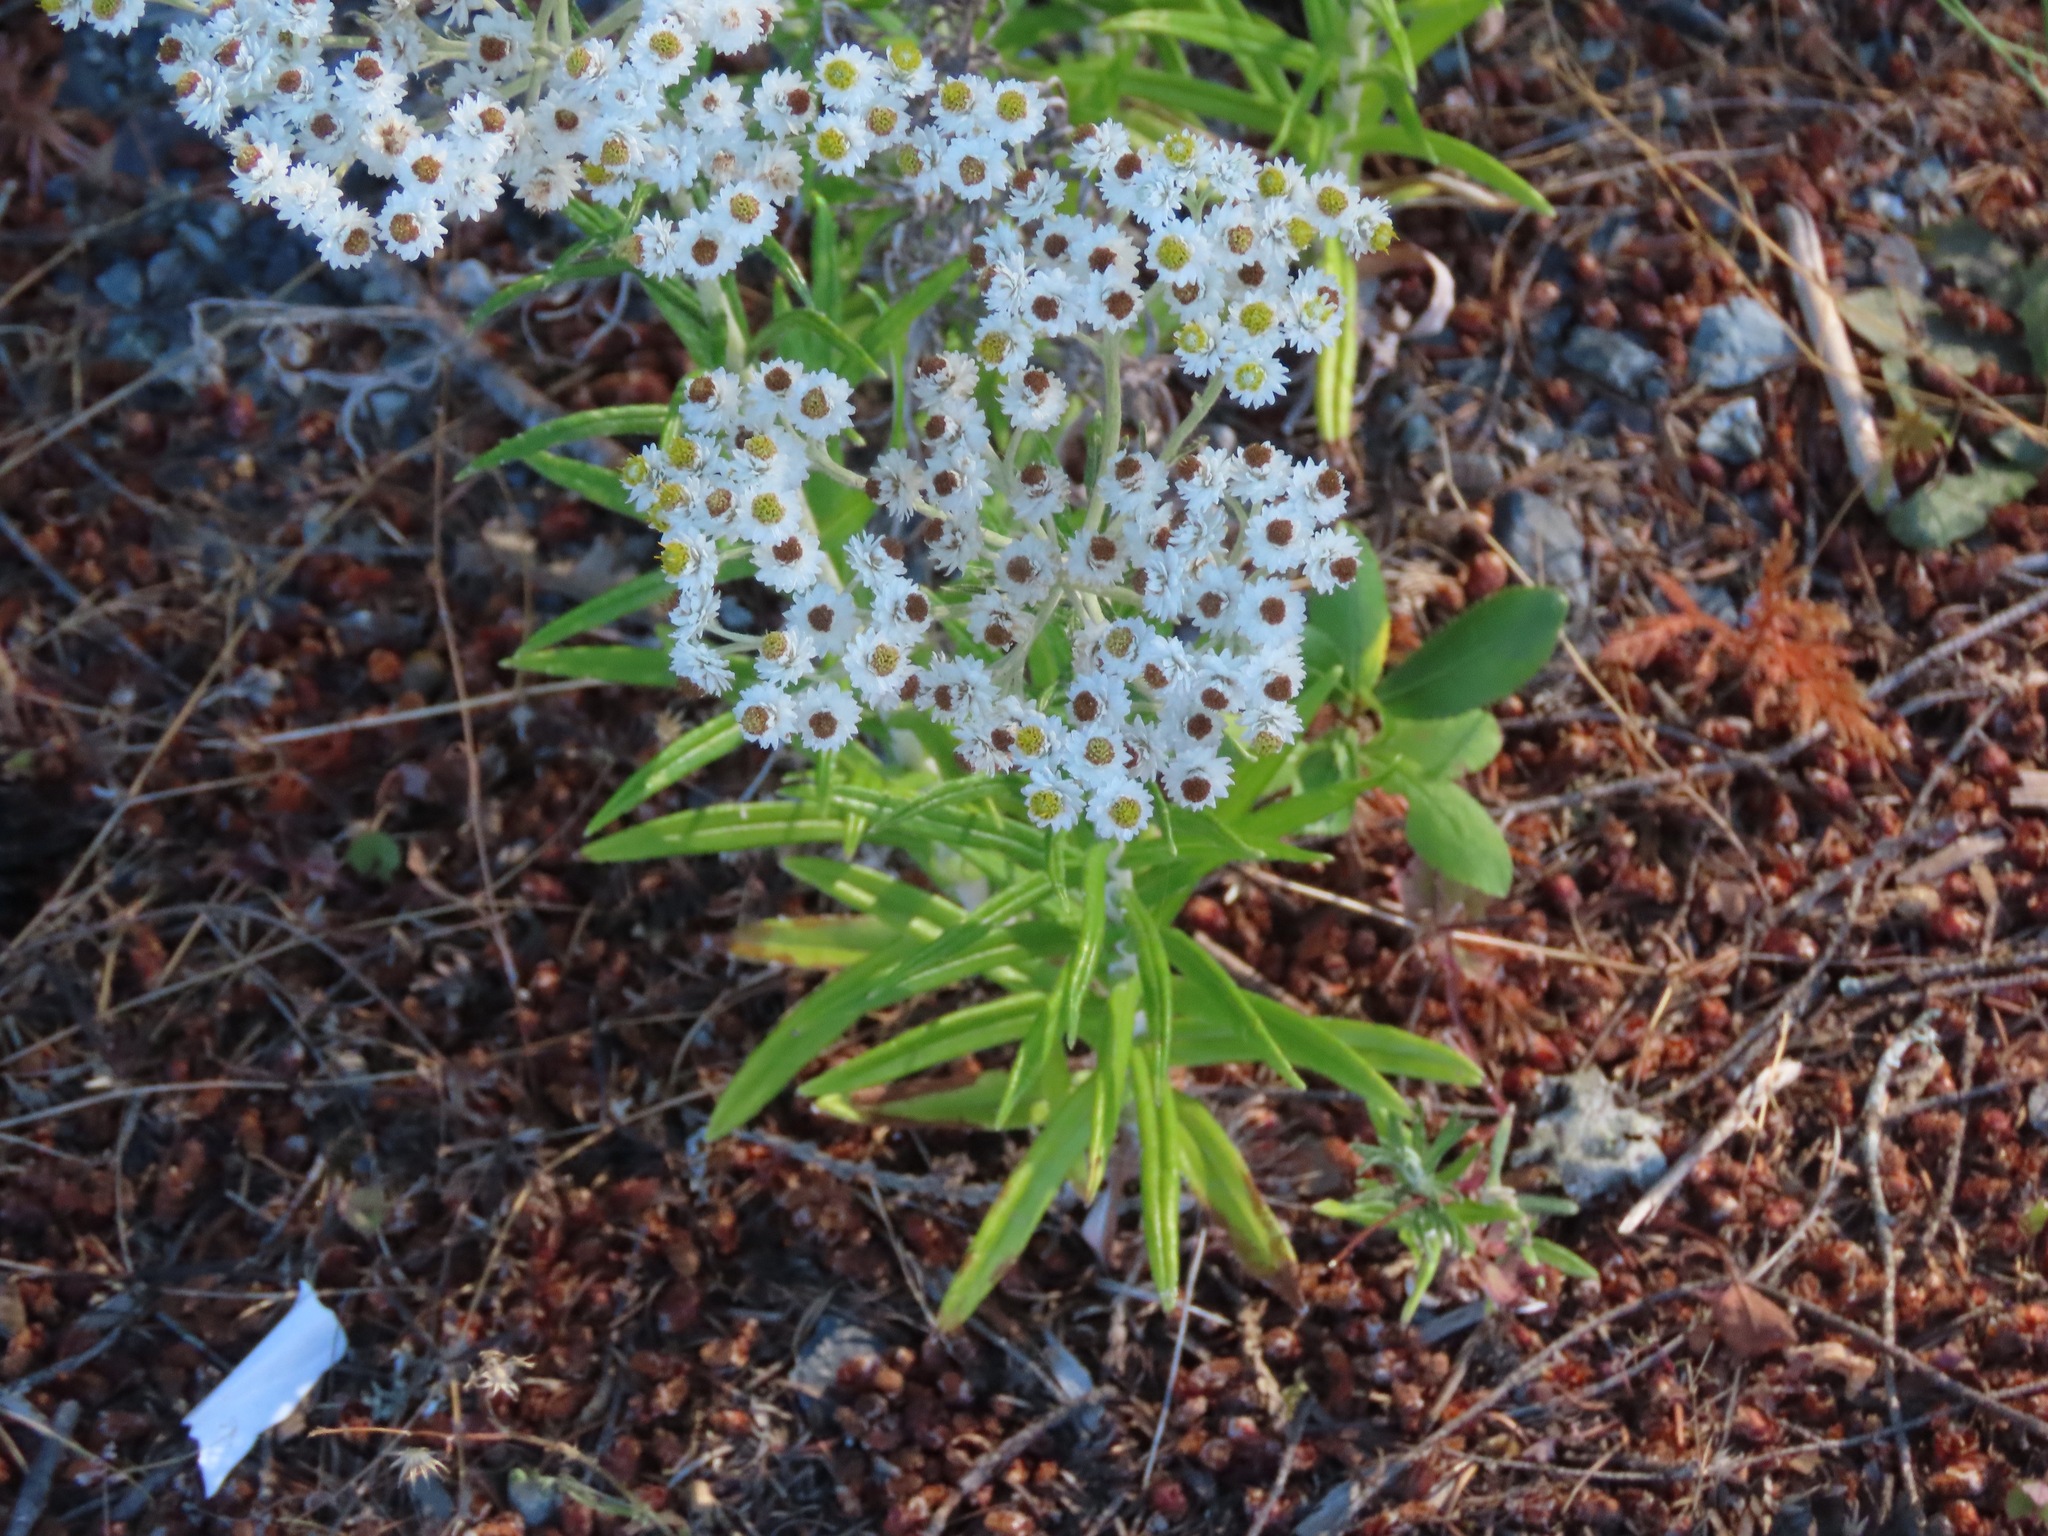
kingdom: Plantae
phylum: Tracheophyta
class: Magnoliopsida
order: Asterales
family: Asteraceae
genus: Anaphalis
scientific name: Anaphalis margaritacea
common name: Pearly everlasting
